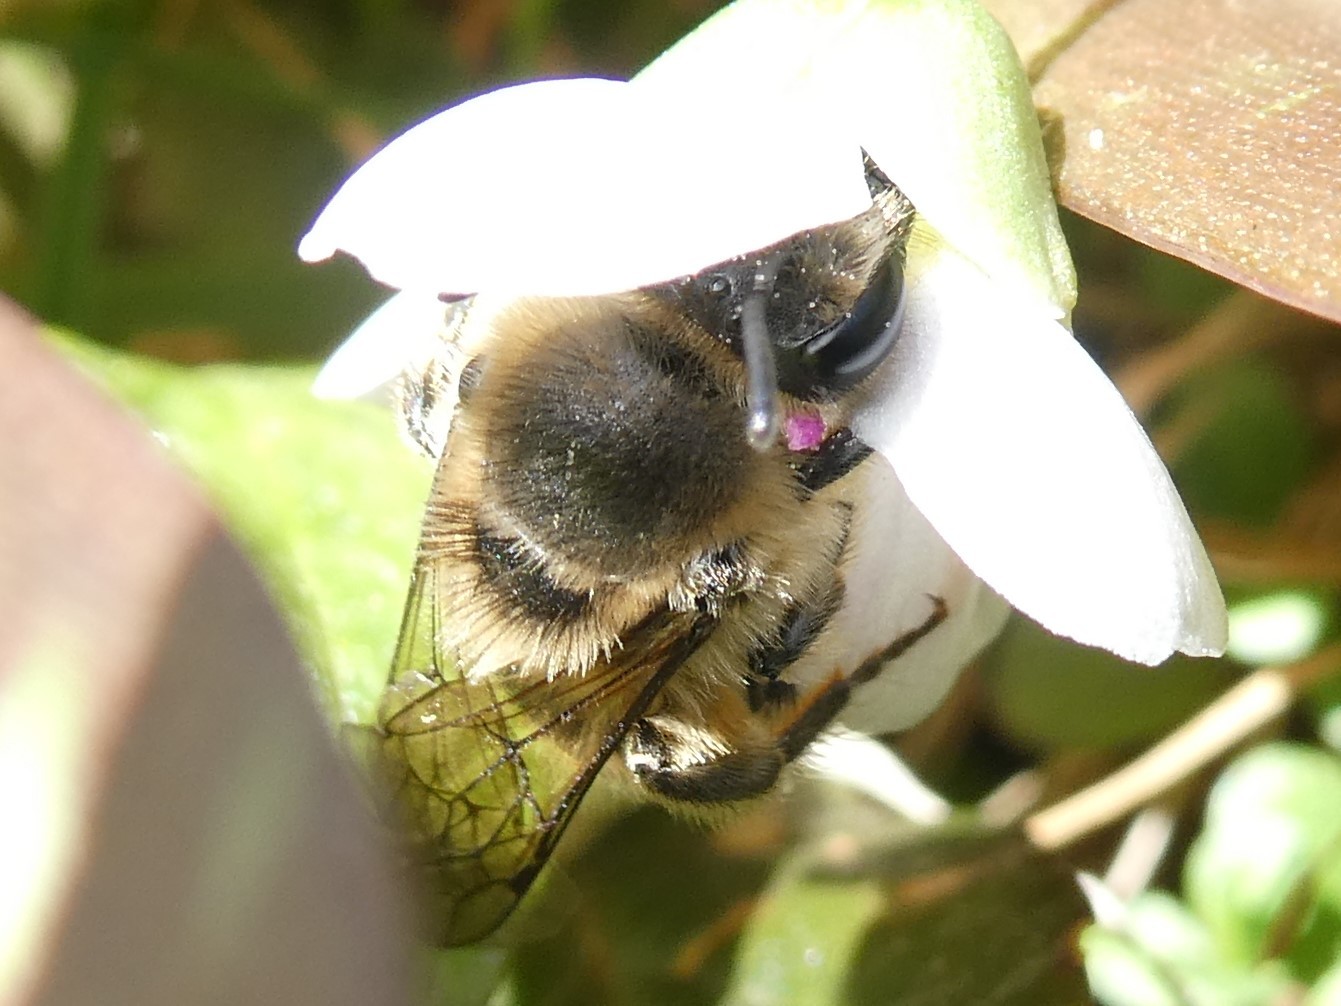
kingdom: Animalia
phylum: Arthropoda
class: Insecta
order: Hymenoptera
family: Colletidae
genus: Colletes
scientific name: Colletes inaequalis
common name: Unequal cellophane bee
